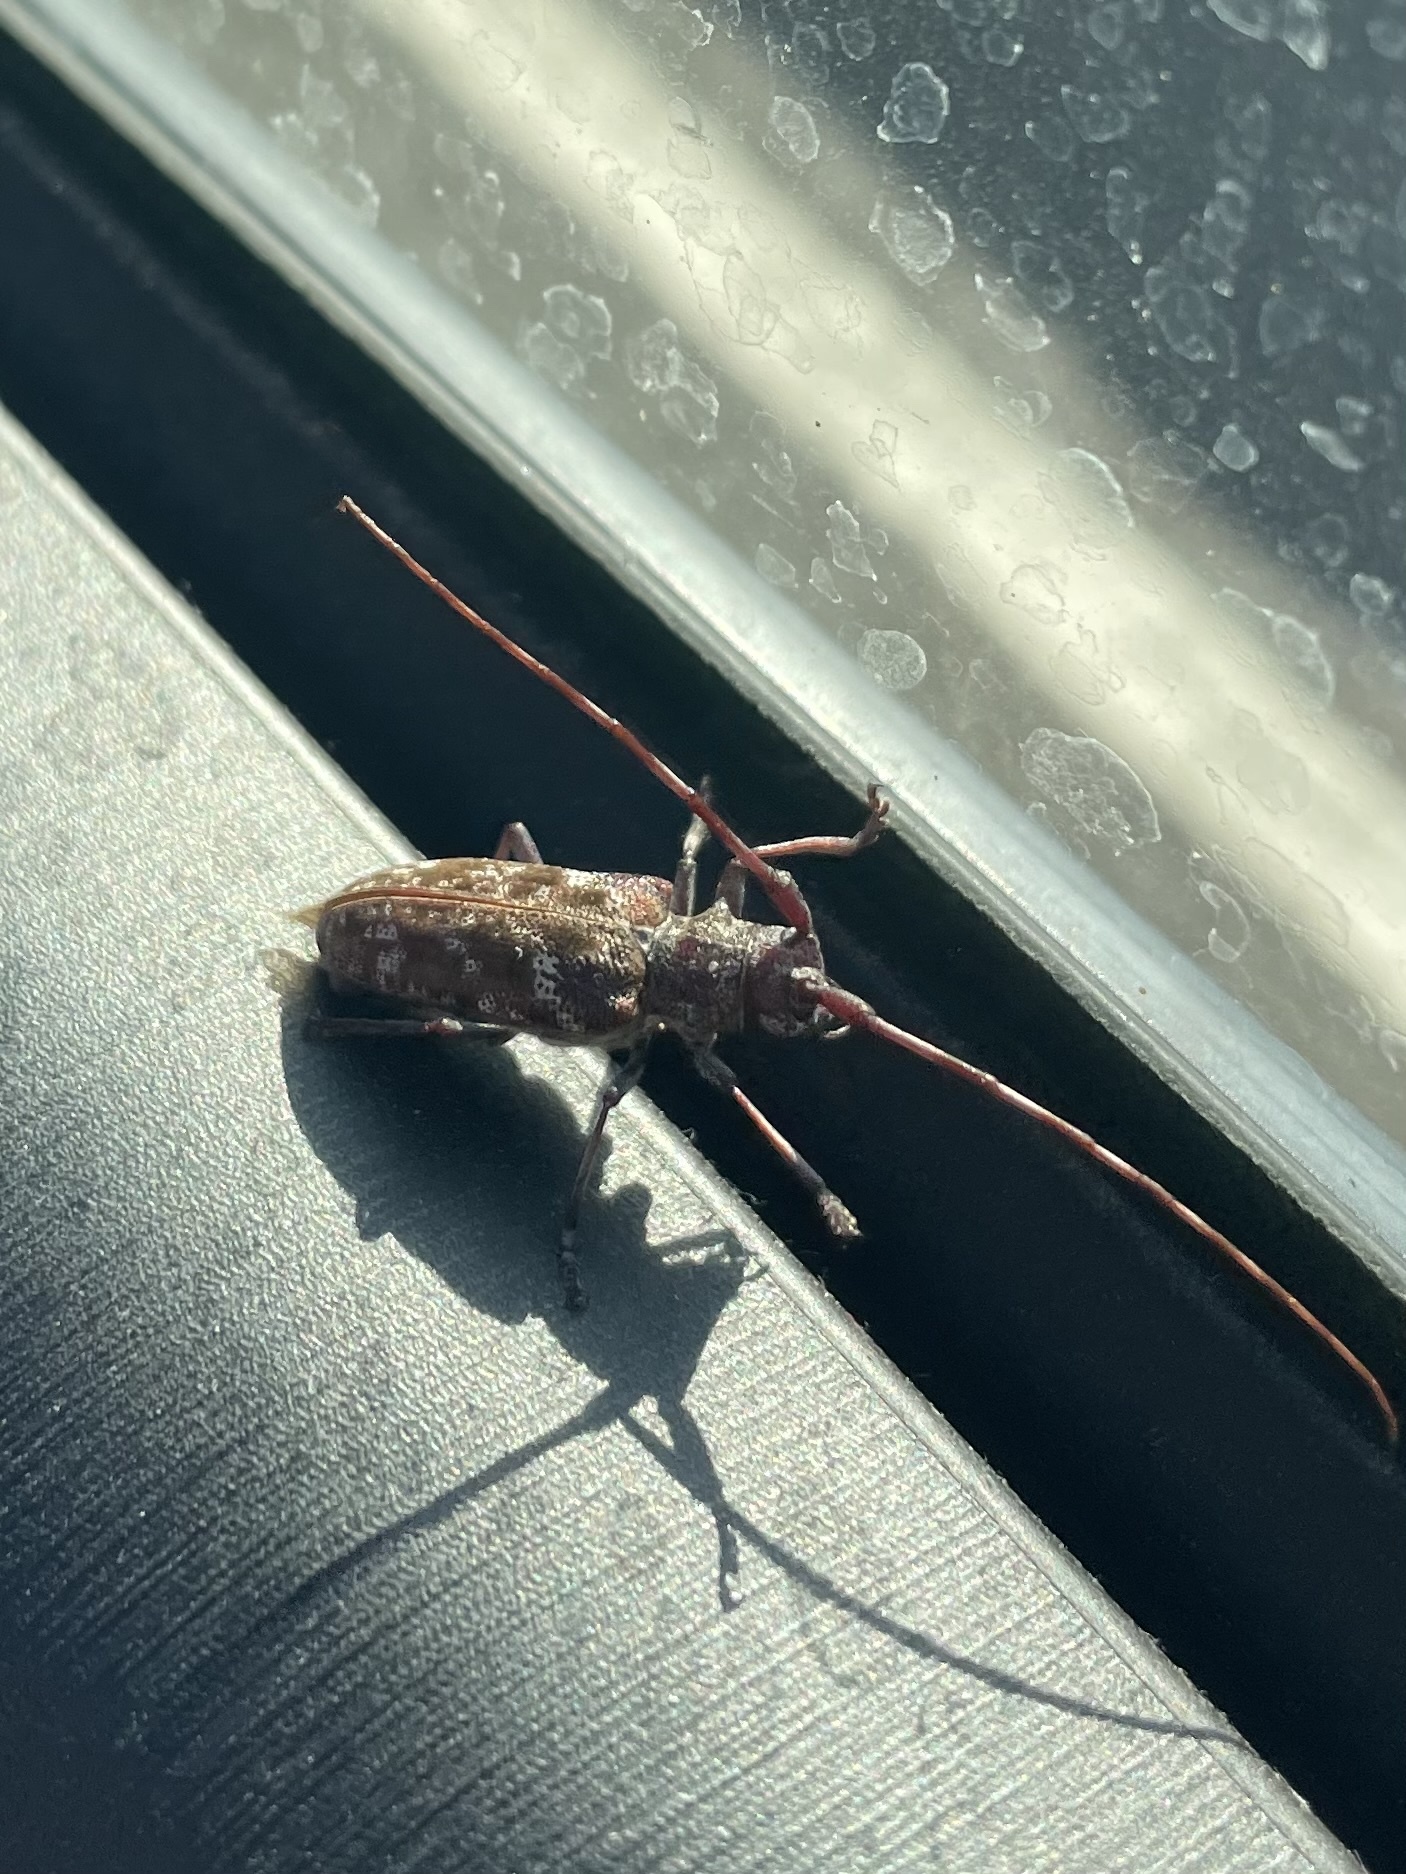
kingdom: Animalia
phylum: Arthropoda
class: Insecta
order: Coleoptera
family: Cerambycidae
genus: Monochamus
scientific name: Monochamus obtusus
